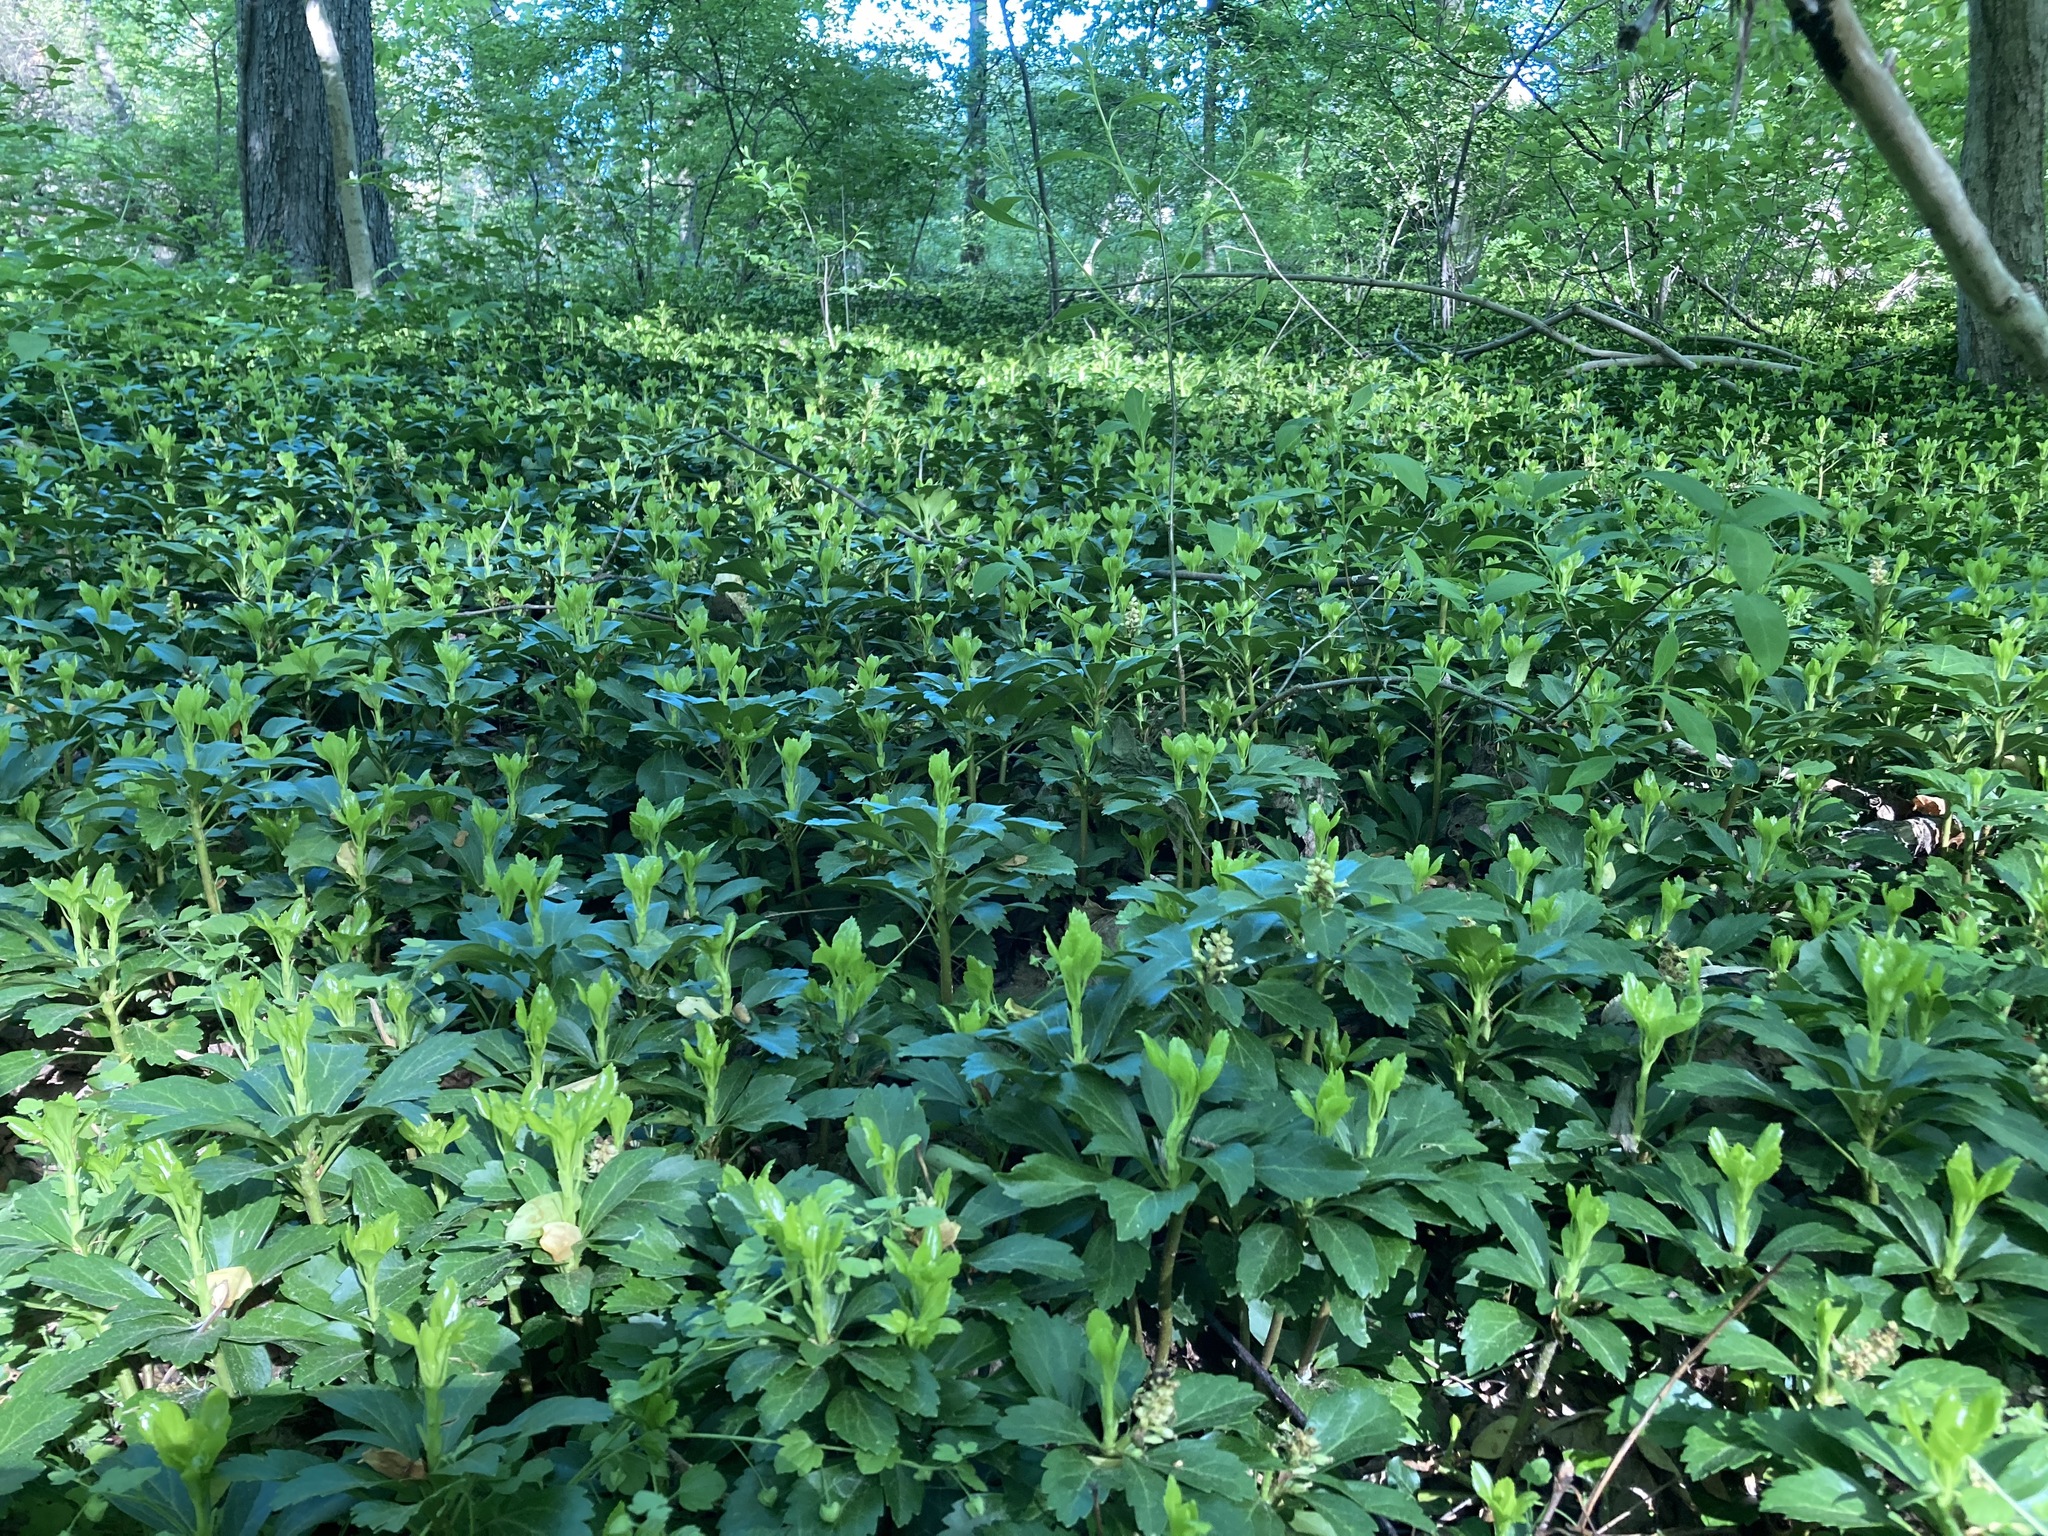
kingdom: Plantae
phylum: Tracheophyta
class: Magnoliopsida
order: Buxales
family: Buxaceae
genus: Pachysandra
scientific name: Pachysandra terminalis
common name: Japanese pachysandra
